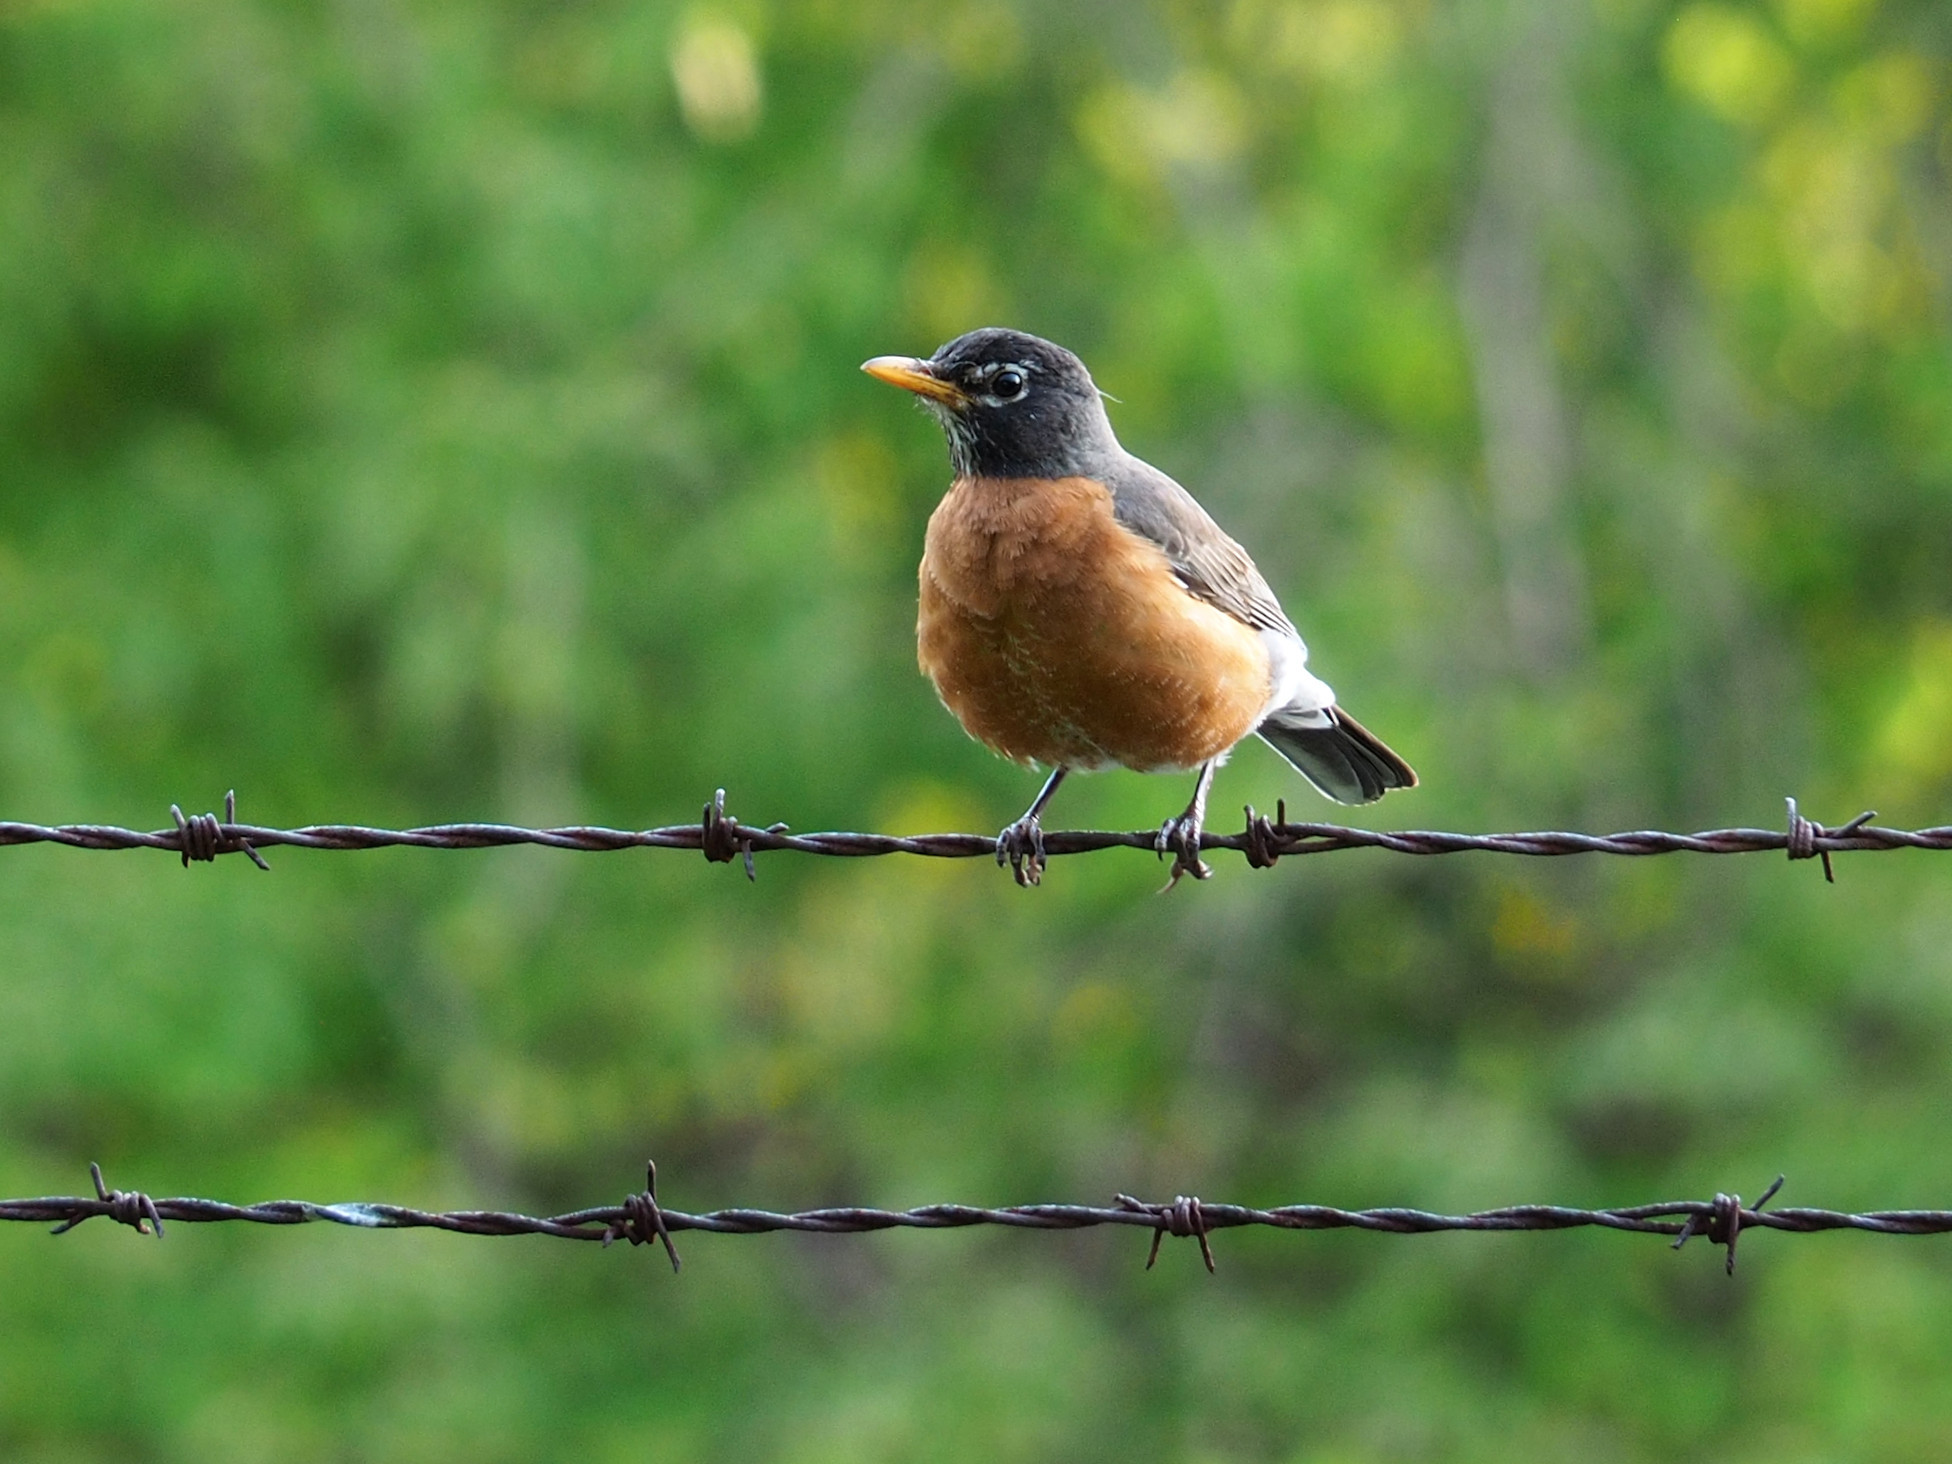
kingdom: Animalia
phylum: Chordata
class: Aves
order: Passeriformes
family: Turdidae
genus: Turdus
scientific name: Turdus migratorius
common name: American robin
